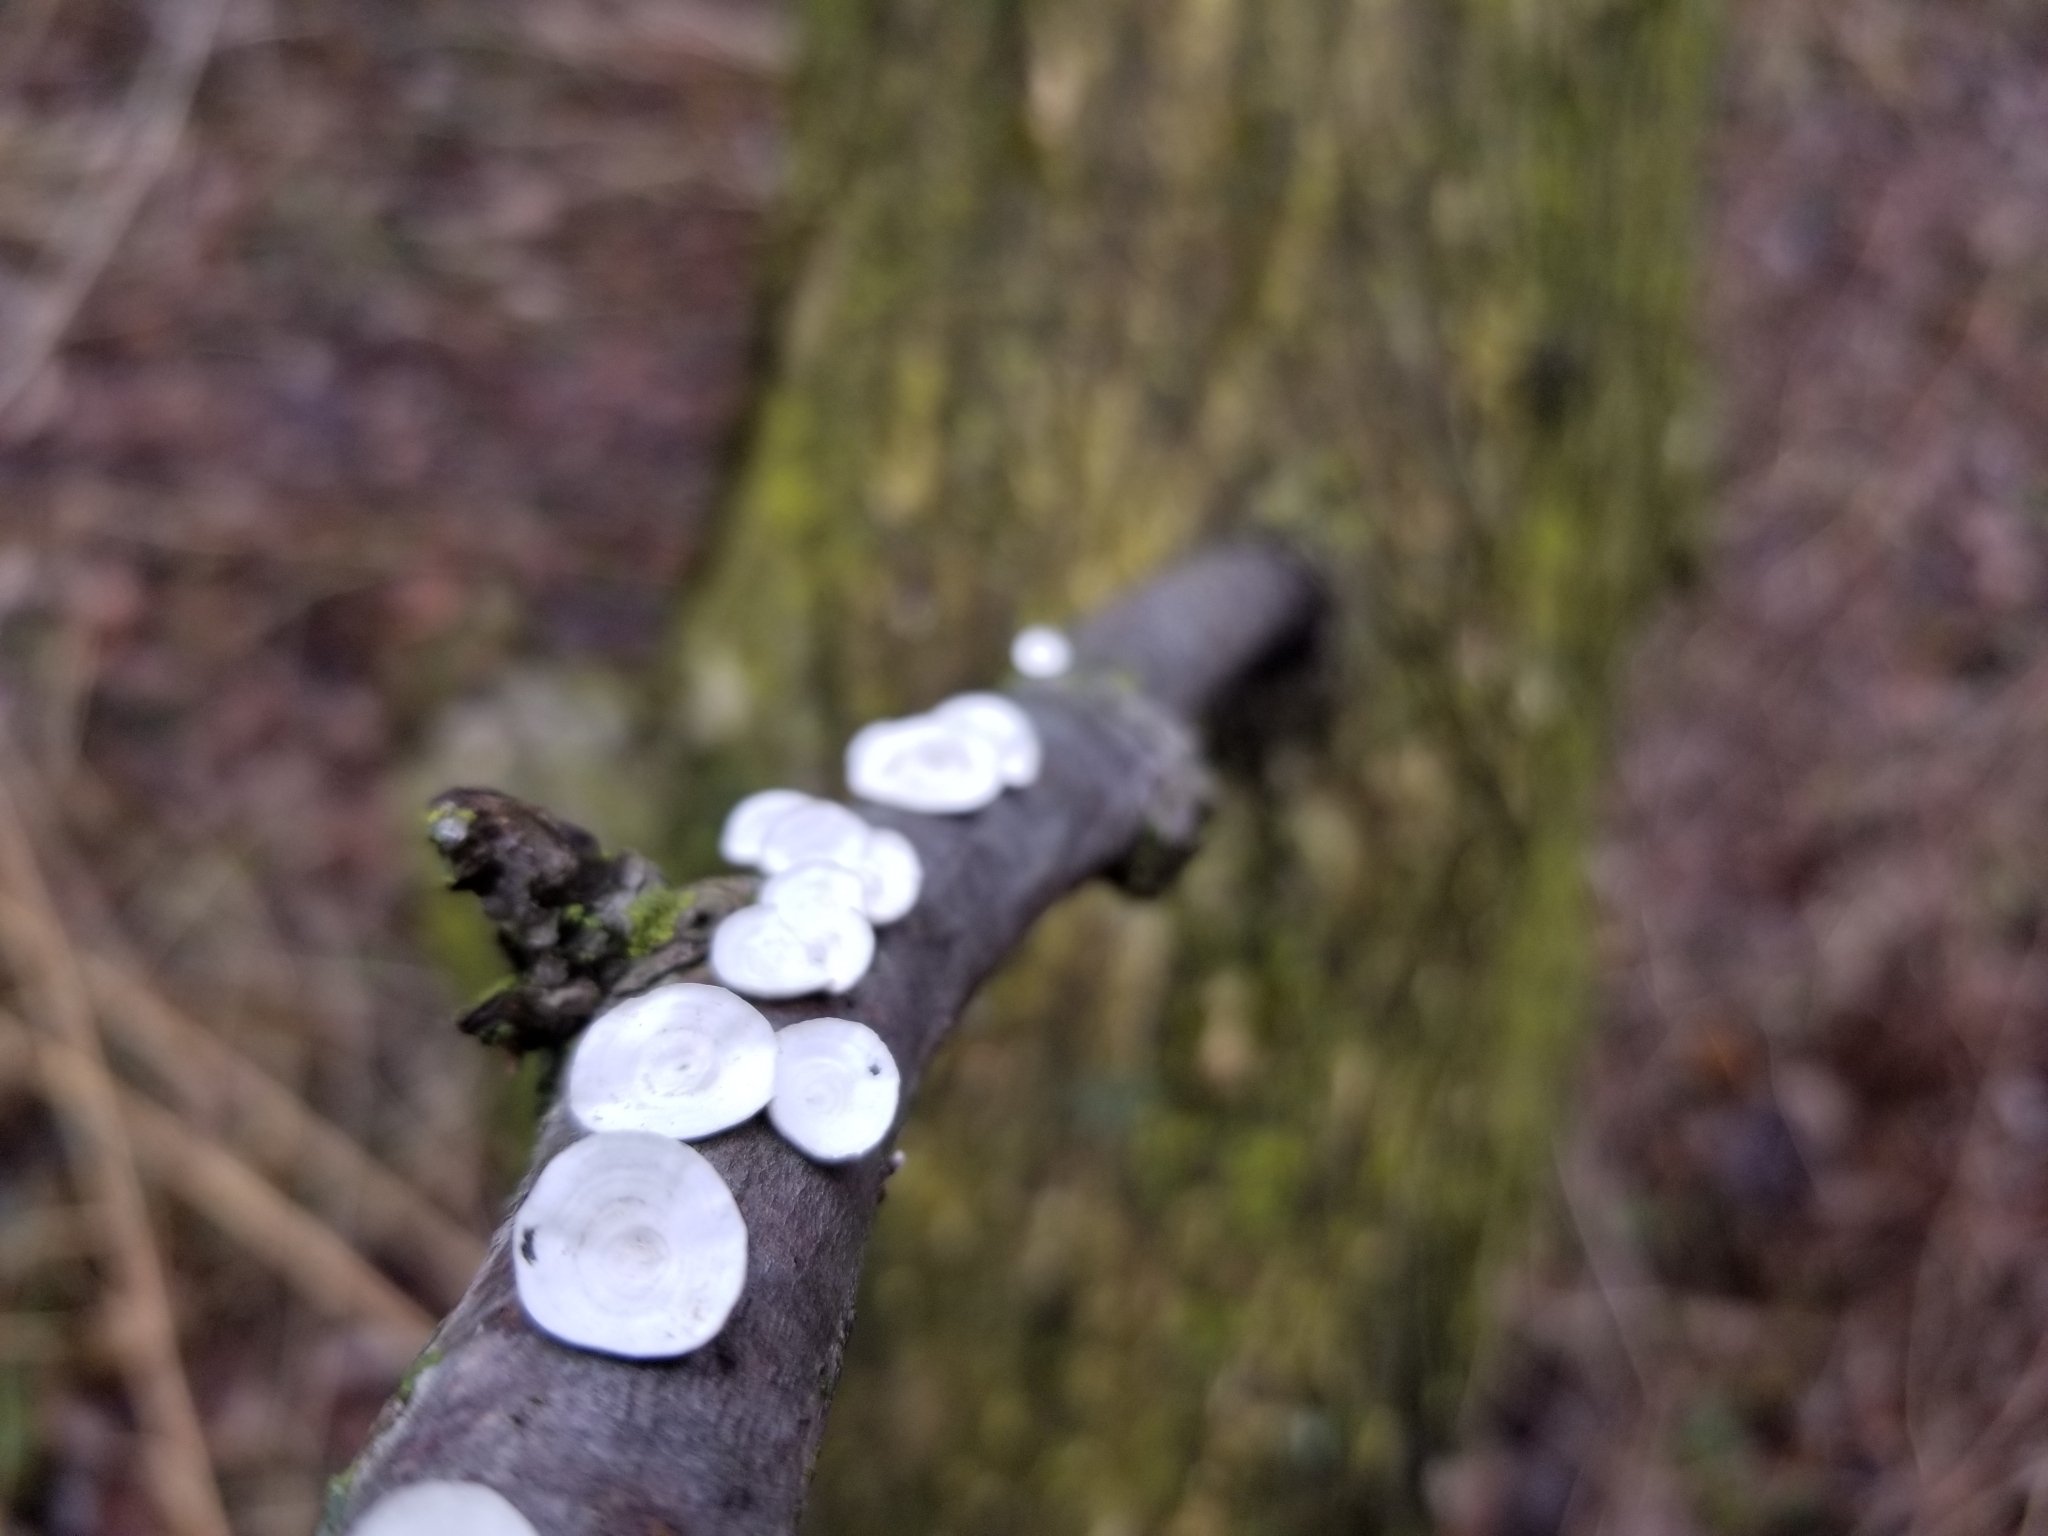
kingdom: Fungi
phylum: Basidiomycota
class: Agaricomycetes
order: Polyporales
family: Polyporaceae
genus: Poronidulus
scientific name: Poronidulus conchifer
